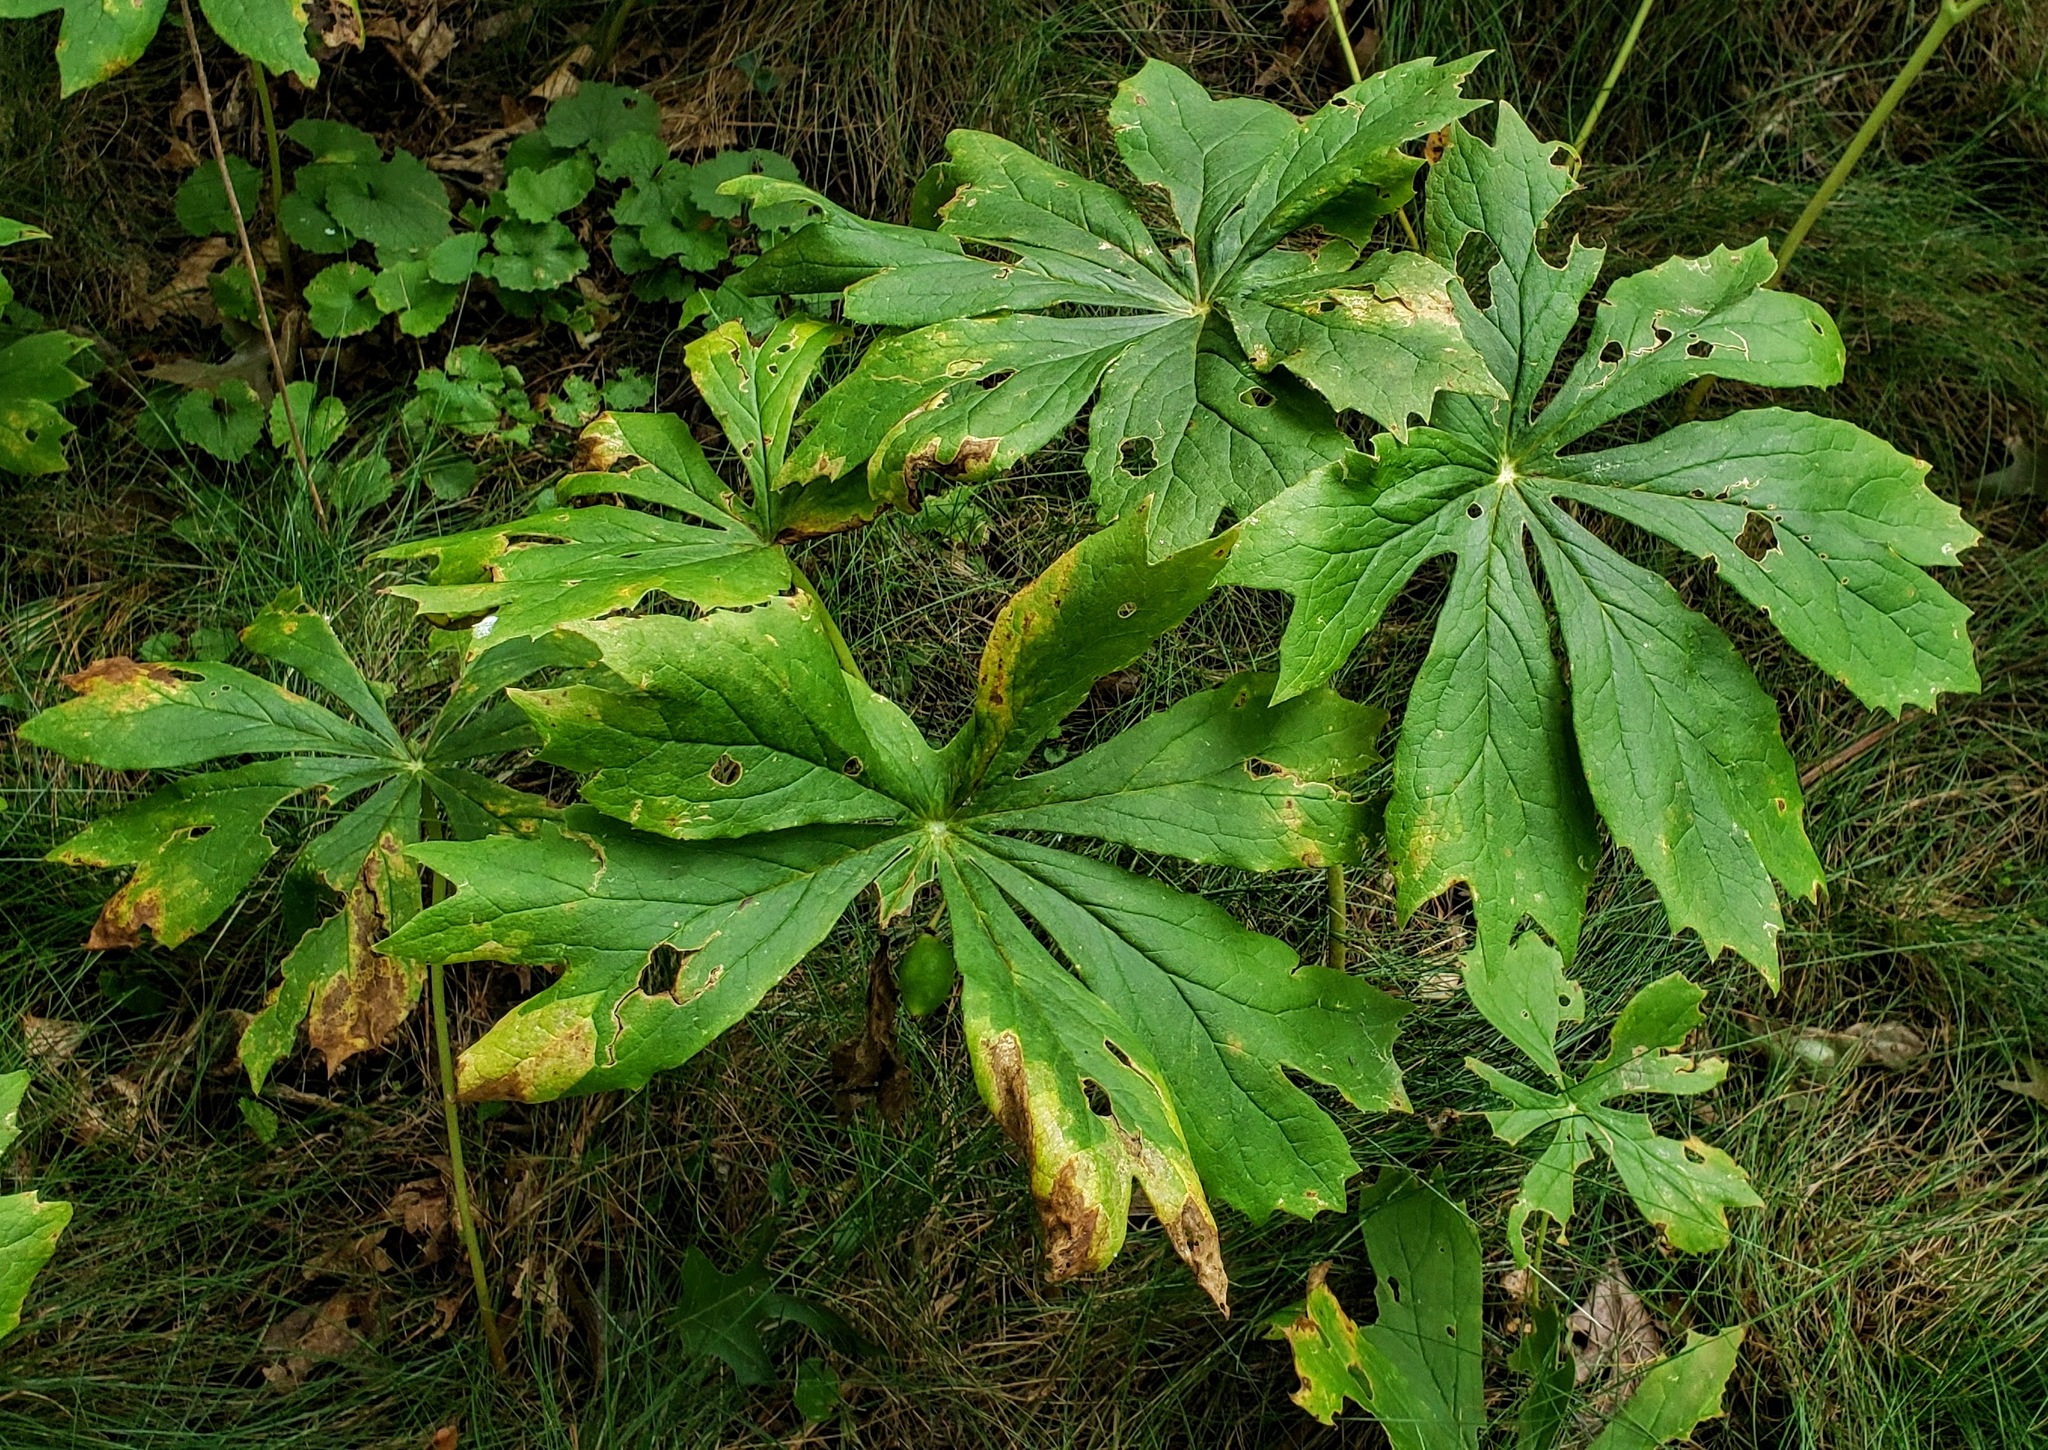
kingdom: Plantae
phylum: Tracheophyta
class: Magnoliopsida
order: Ranunculales
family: Berberidaceae
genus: Podophyllum
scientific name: Podophyllum peltatum
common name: Wild mandrake
